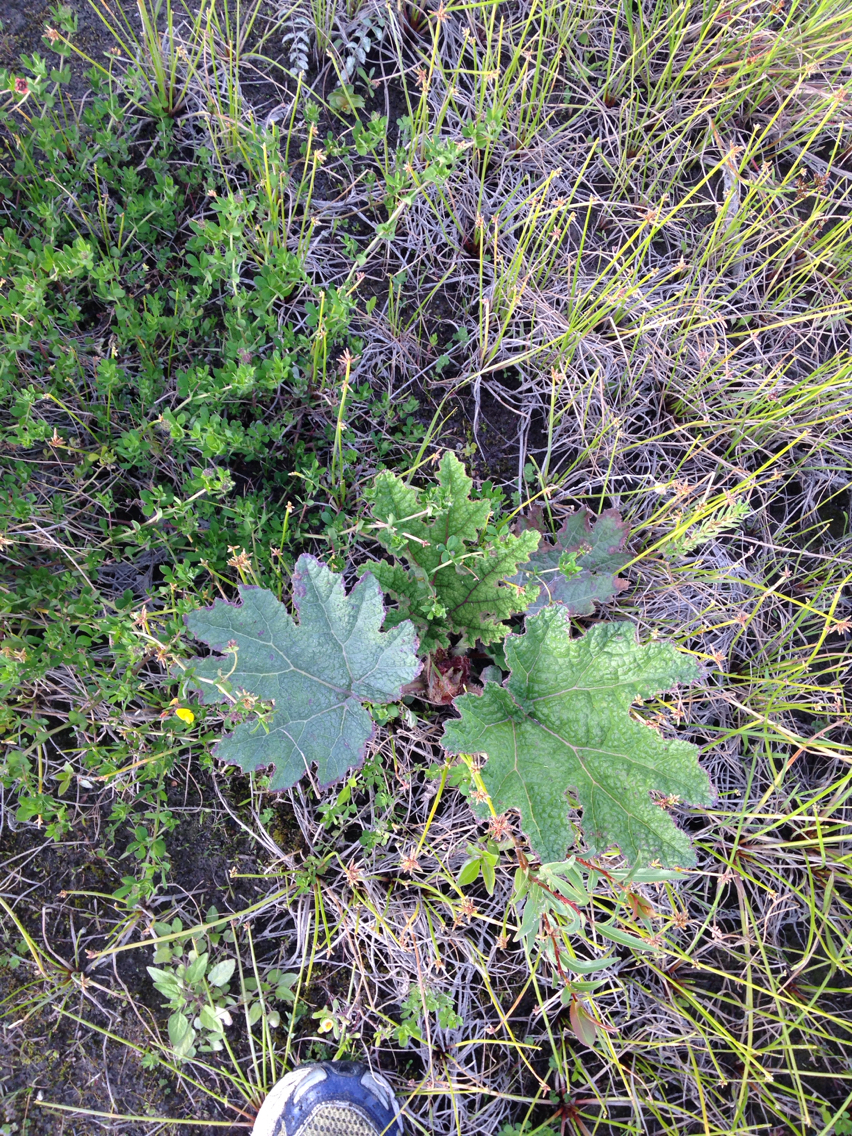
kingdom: Plantae
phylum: Tracheophyta
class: Magnoliopsida
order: Gunnerales
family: Gunneraceae
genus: Gunnera
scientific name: Gunnera tinctoria
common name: Giant-rhubarb
